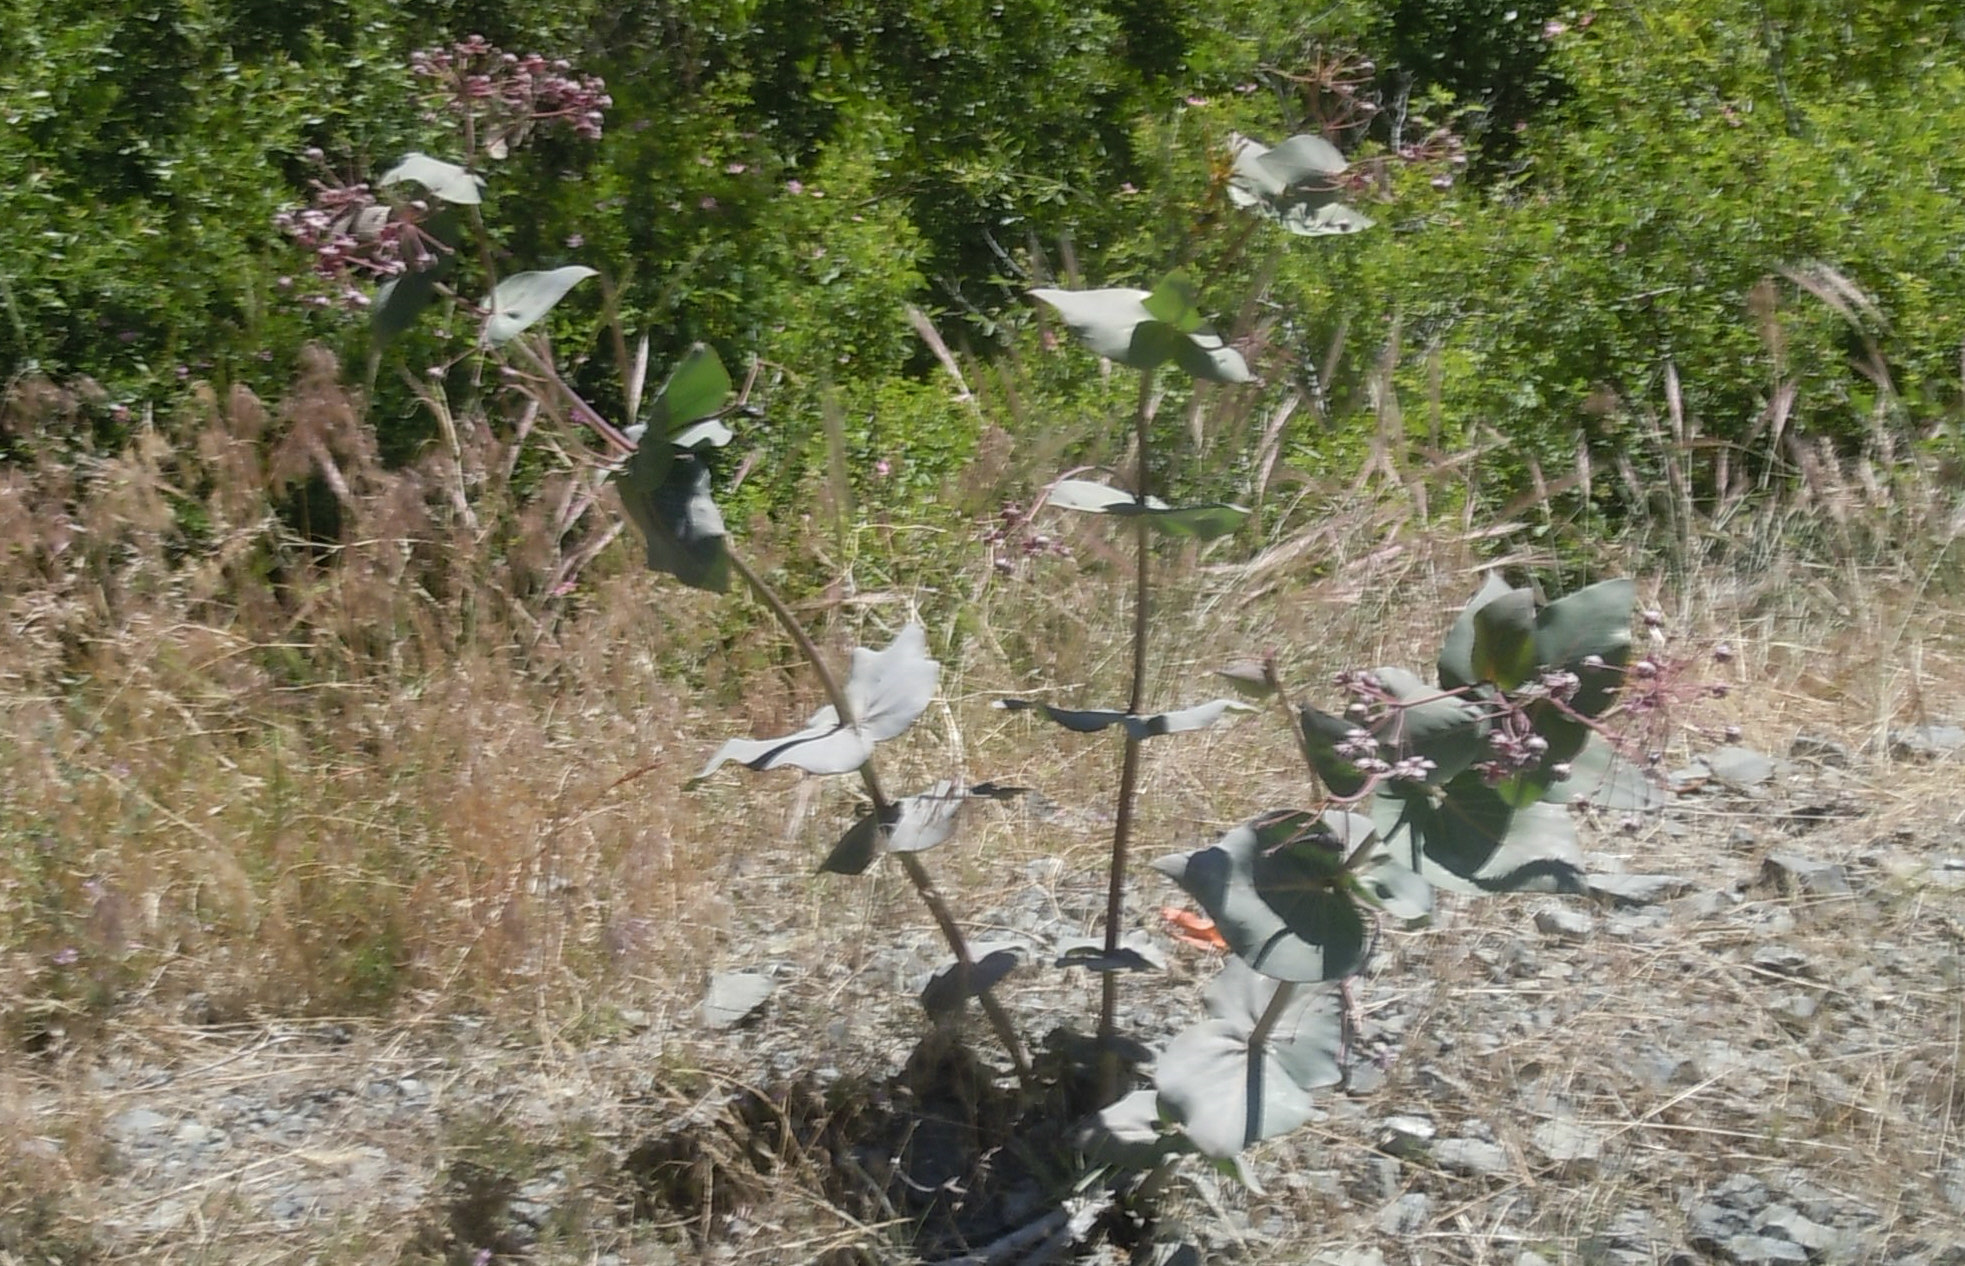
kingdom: Plantae
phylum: Tracheophyta
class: Magnoliopsida
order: Gentianales
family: Apocynaceae
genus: Asclepias
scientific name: Asclepias cordifolia
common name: Purple milkweed
